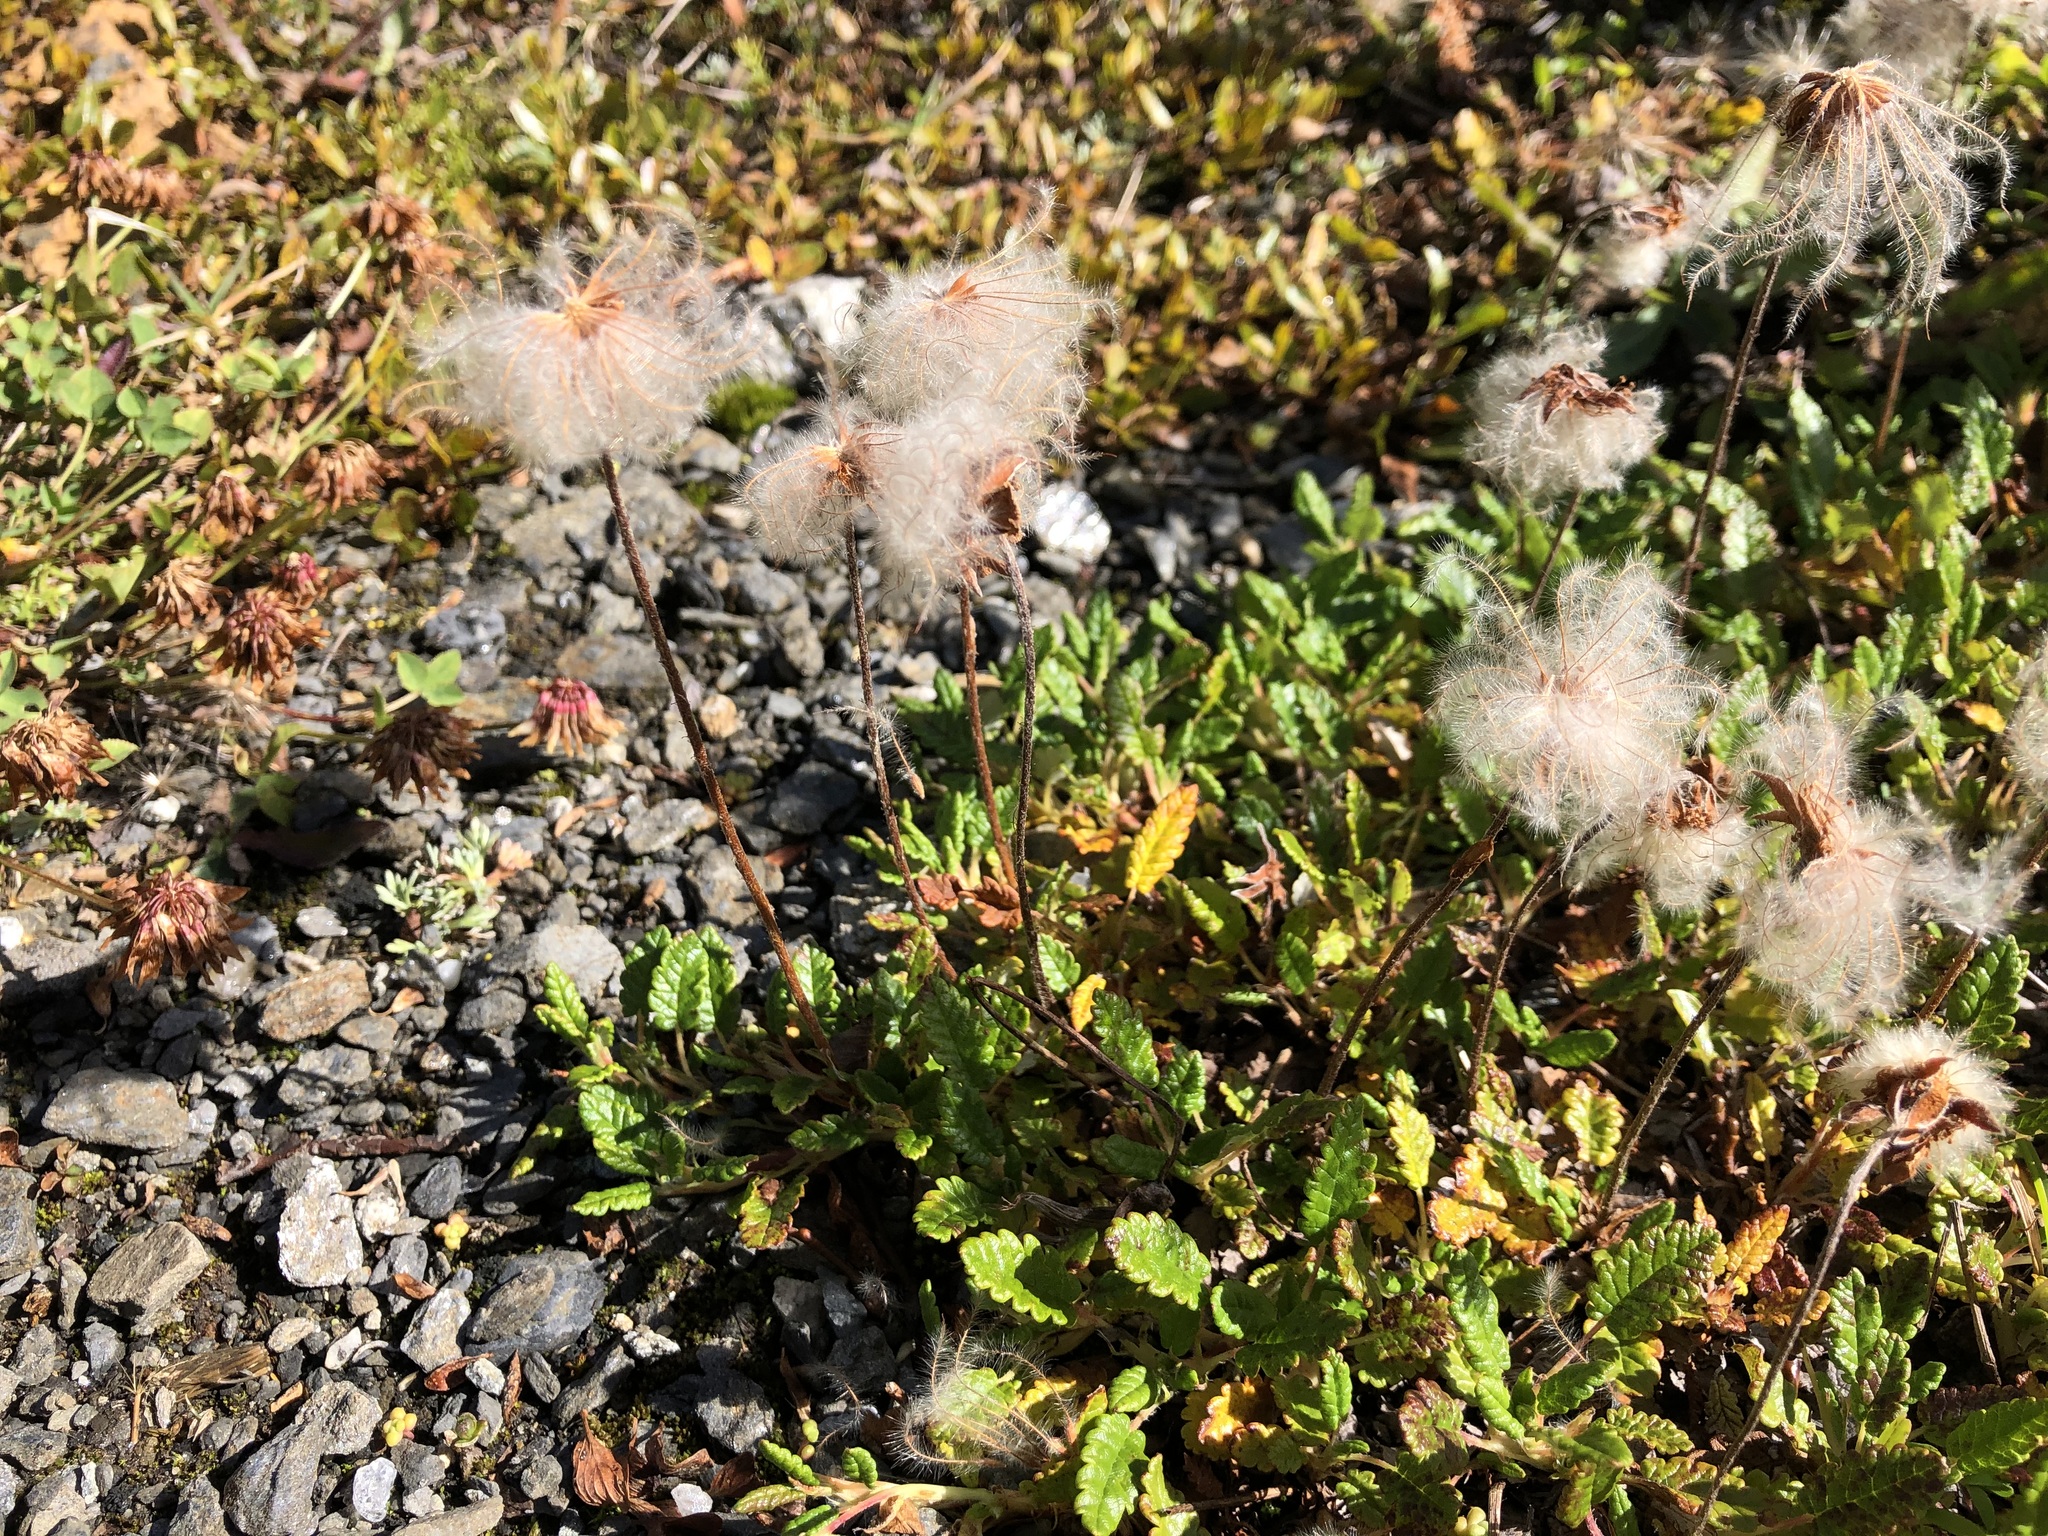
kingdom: Plantae
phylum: Tracheophyta
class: Magnoliopsida
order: Rosales
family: Rosaceae
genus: Dryas
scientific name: Dryas octopetala
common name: Eight-petal mountain-avens
